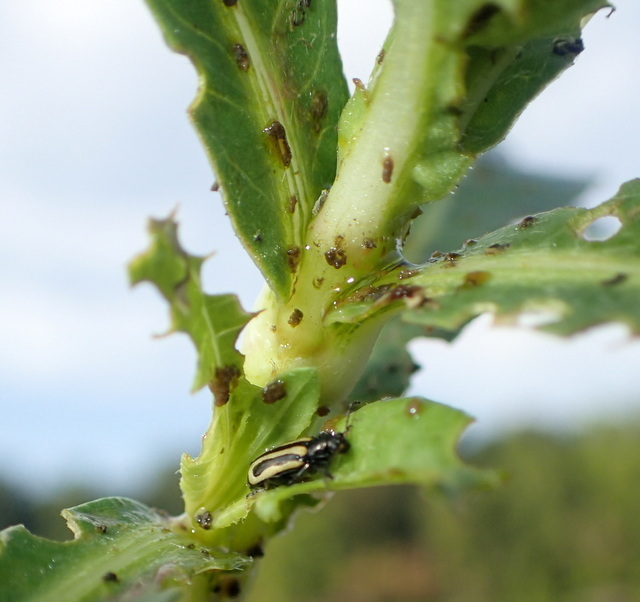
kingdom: Animalia
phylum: Arthropoda
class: Insecta
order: Coleoptera
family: Chrysomelidae
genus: Agasicles
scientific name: Agasicles hygrophila
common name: Alligatorweed flea beetle
